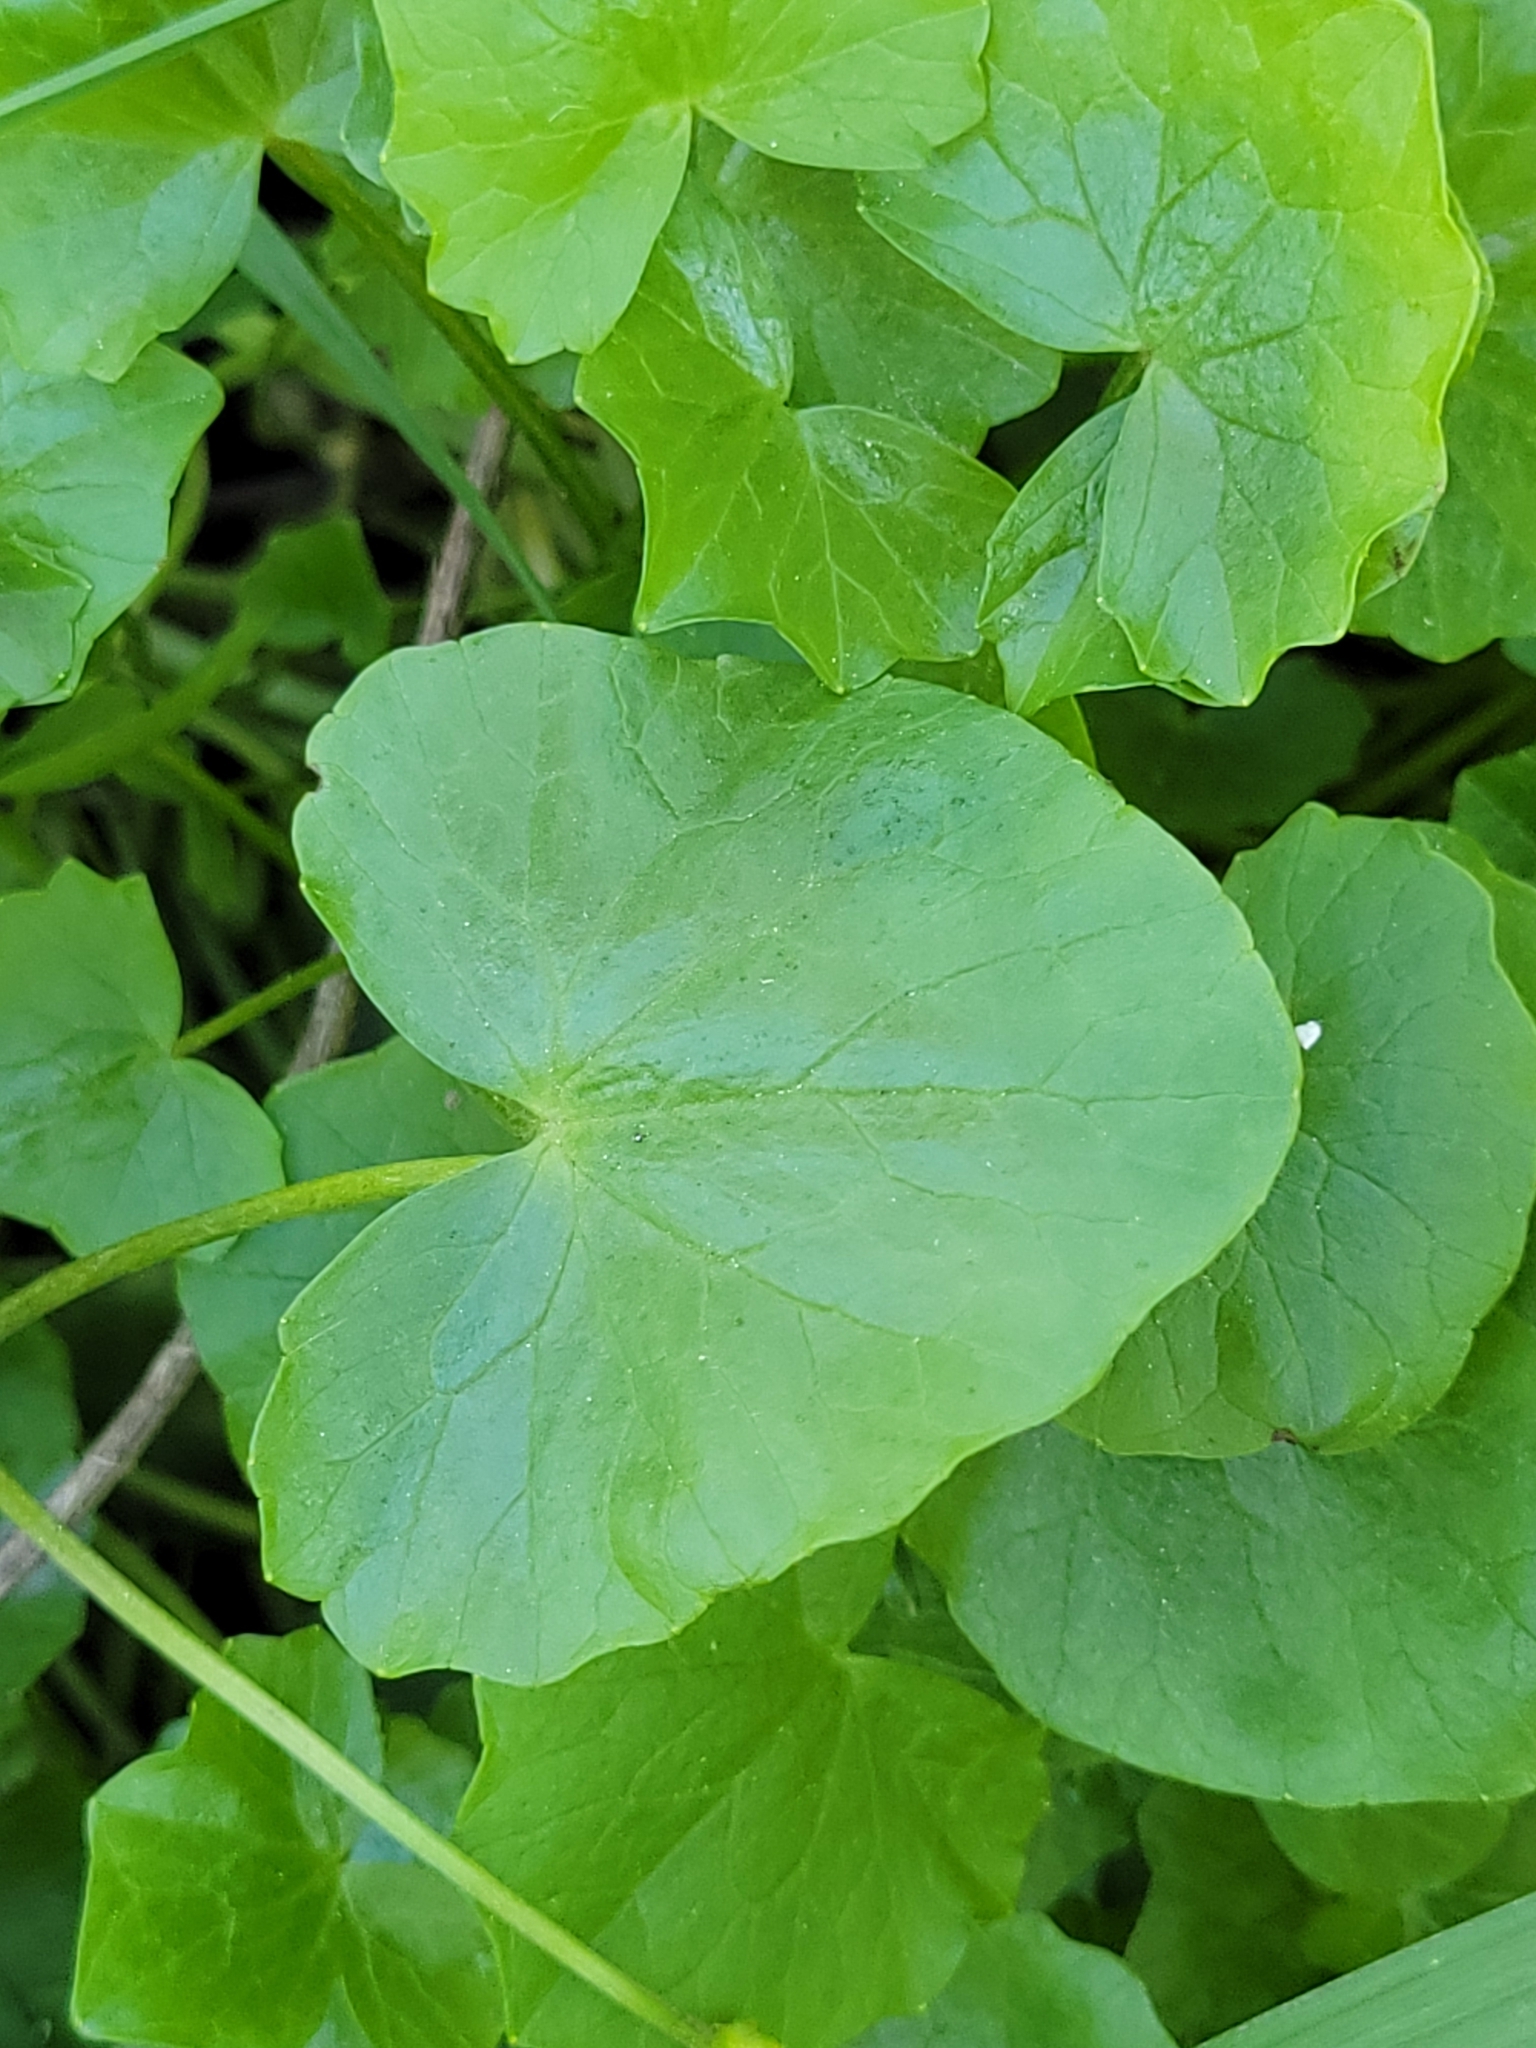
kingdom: Plantae
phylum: Tracheophyta
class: Magnoliopsida
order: Ranunculales
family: Ranunculaceae
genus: Ficaria
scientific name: Ficaria verna
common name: Lesser celandine
